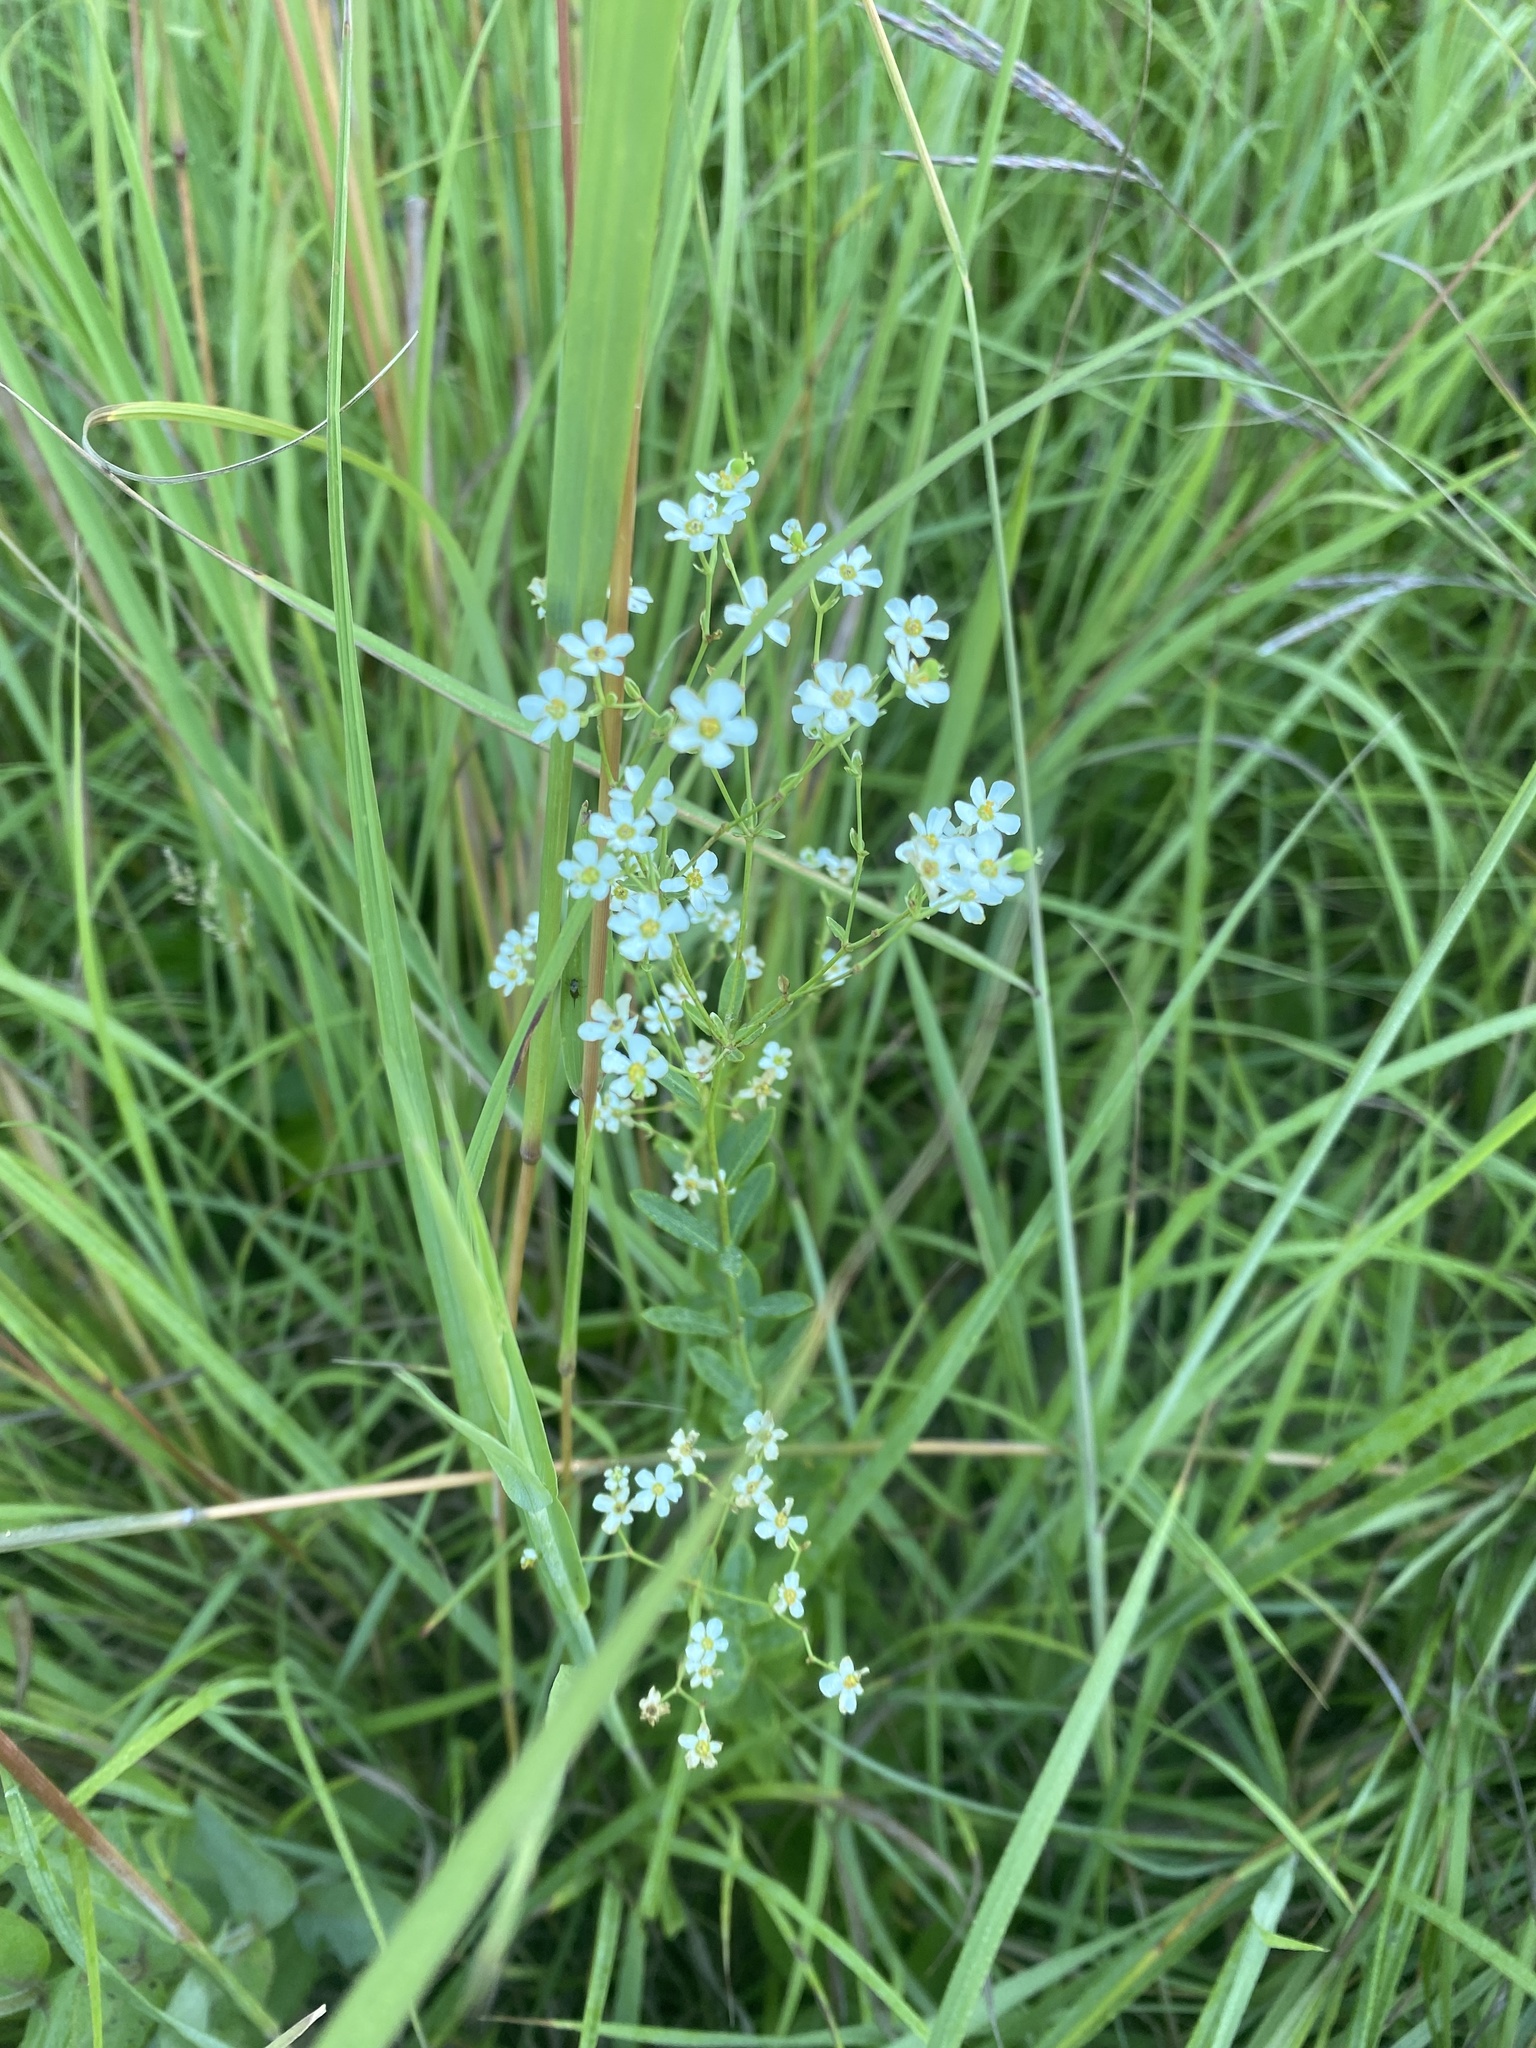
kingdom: Plantae
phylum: Tracheophyta
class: Magnoliopsida
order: Malpighiales
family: Euphorbiaceae
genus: Euphorbia
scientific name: Euphorbia corollata
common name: Flowering spurge
